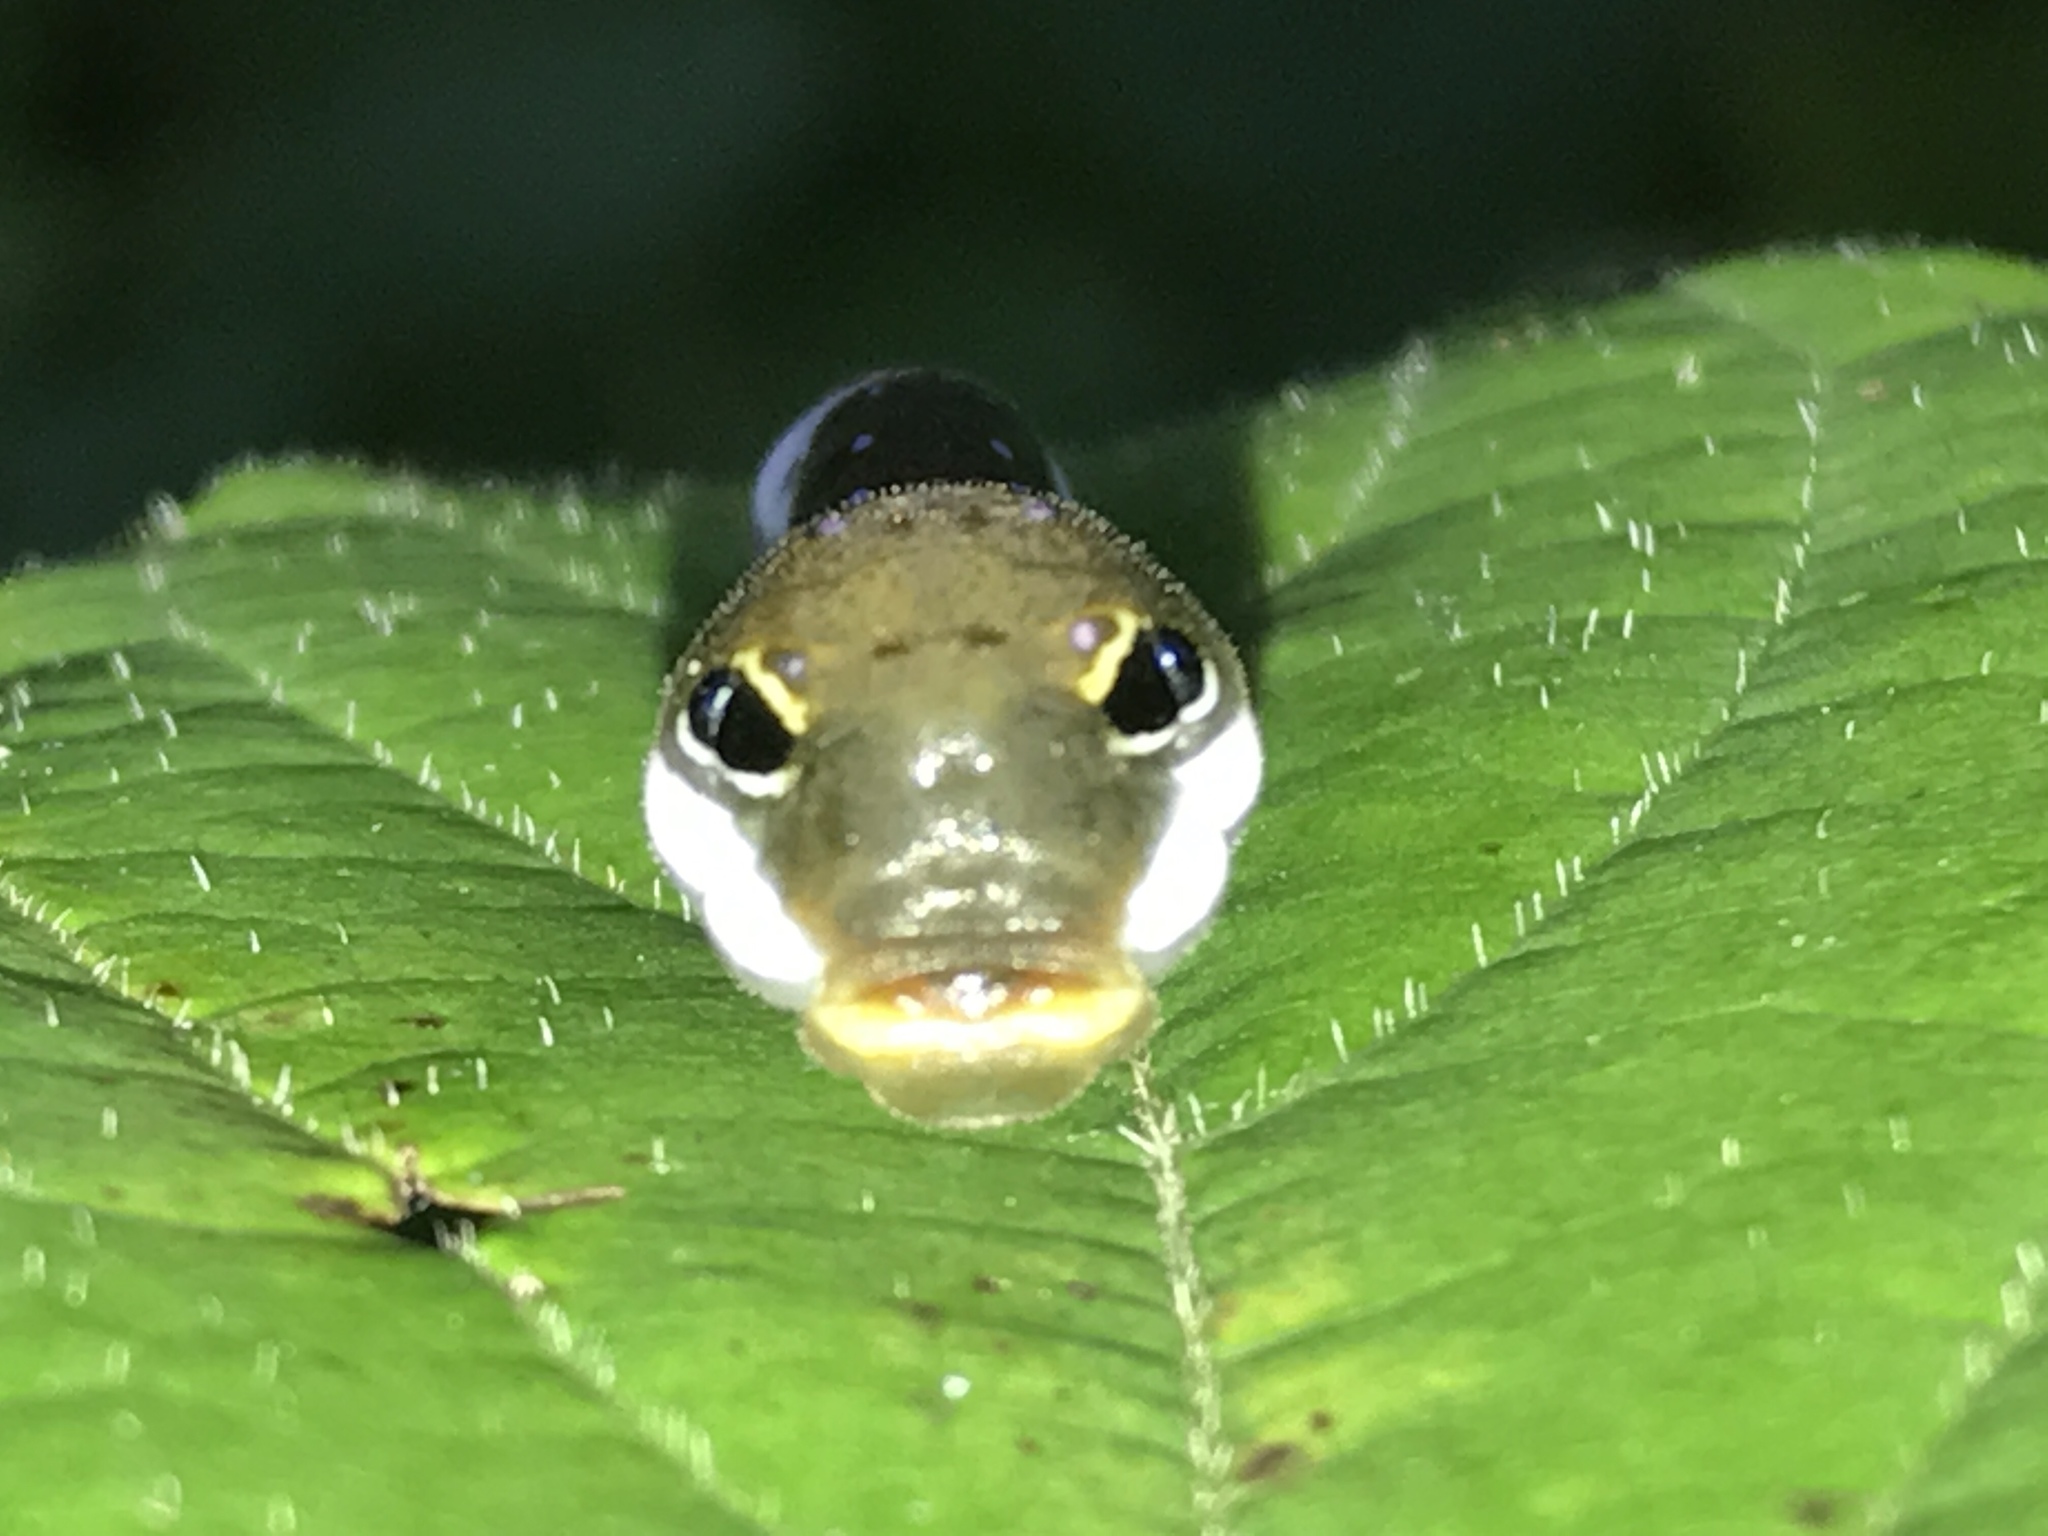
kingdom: Animalia
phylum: Arthropoda
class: Insecta
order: Lepidoptera
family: Papilionidae
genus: Papilio
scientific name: Papilio troilus
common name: Spicebush swallowtail
